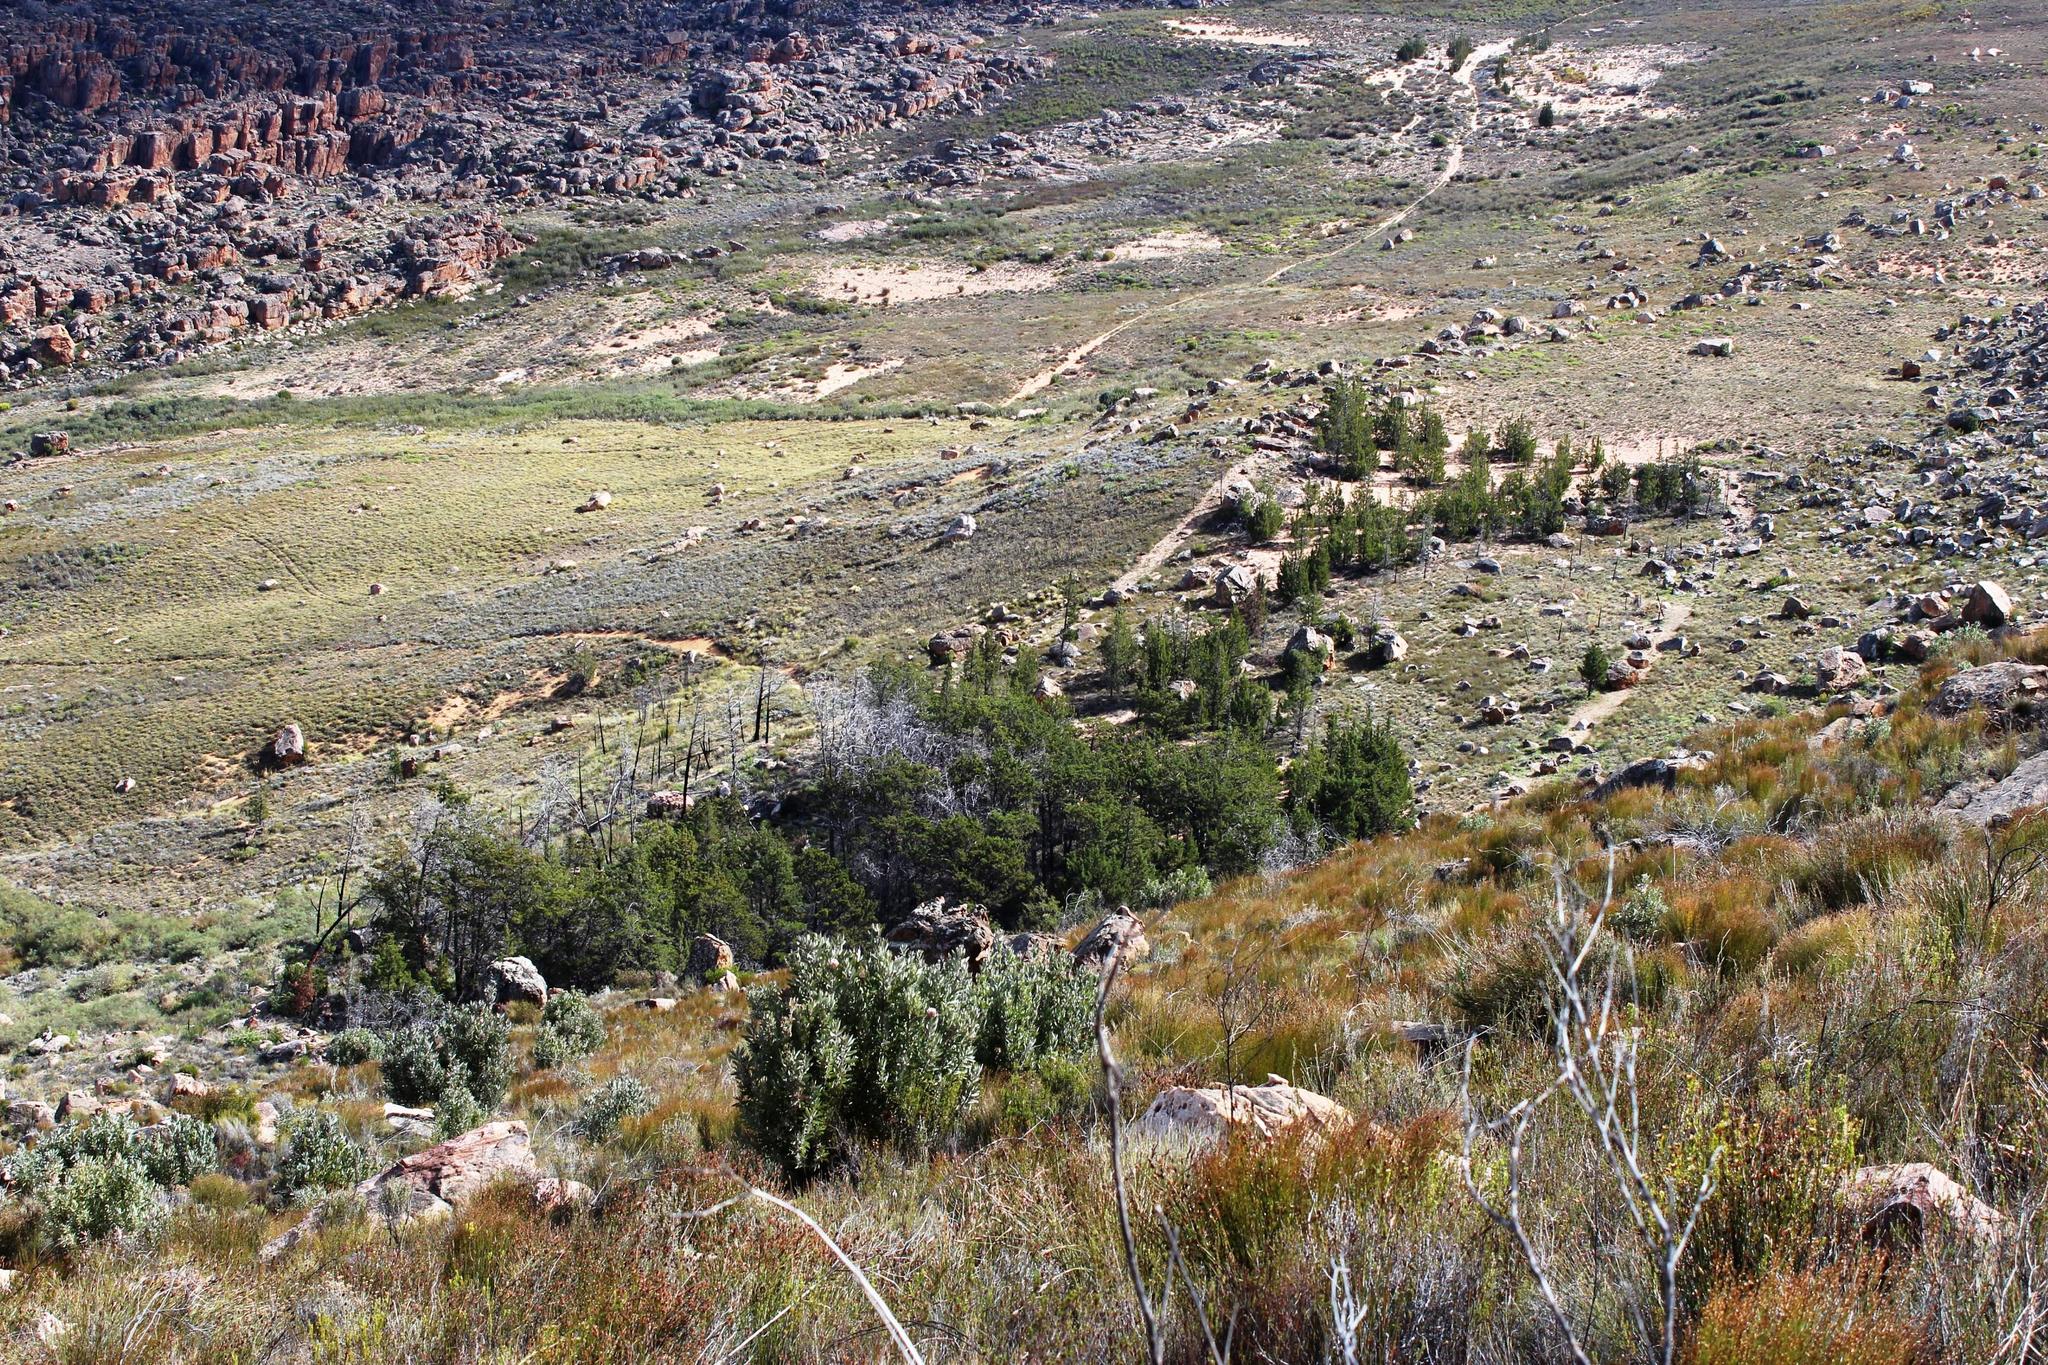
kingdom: Plantae
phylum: Tracheophyta
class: Pinopsida
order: Pinales
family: Cupressaceae
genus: Widdringtonia
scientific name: Widdringtonia nodiflora
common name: Cape cypress
